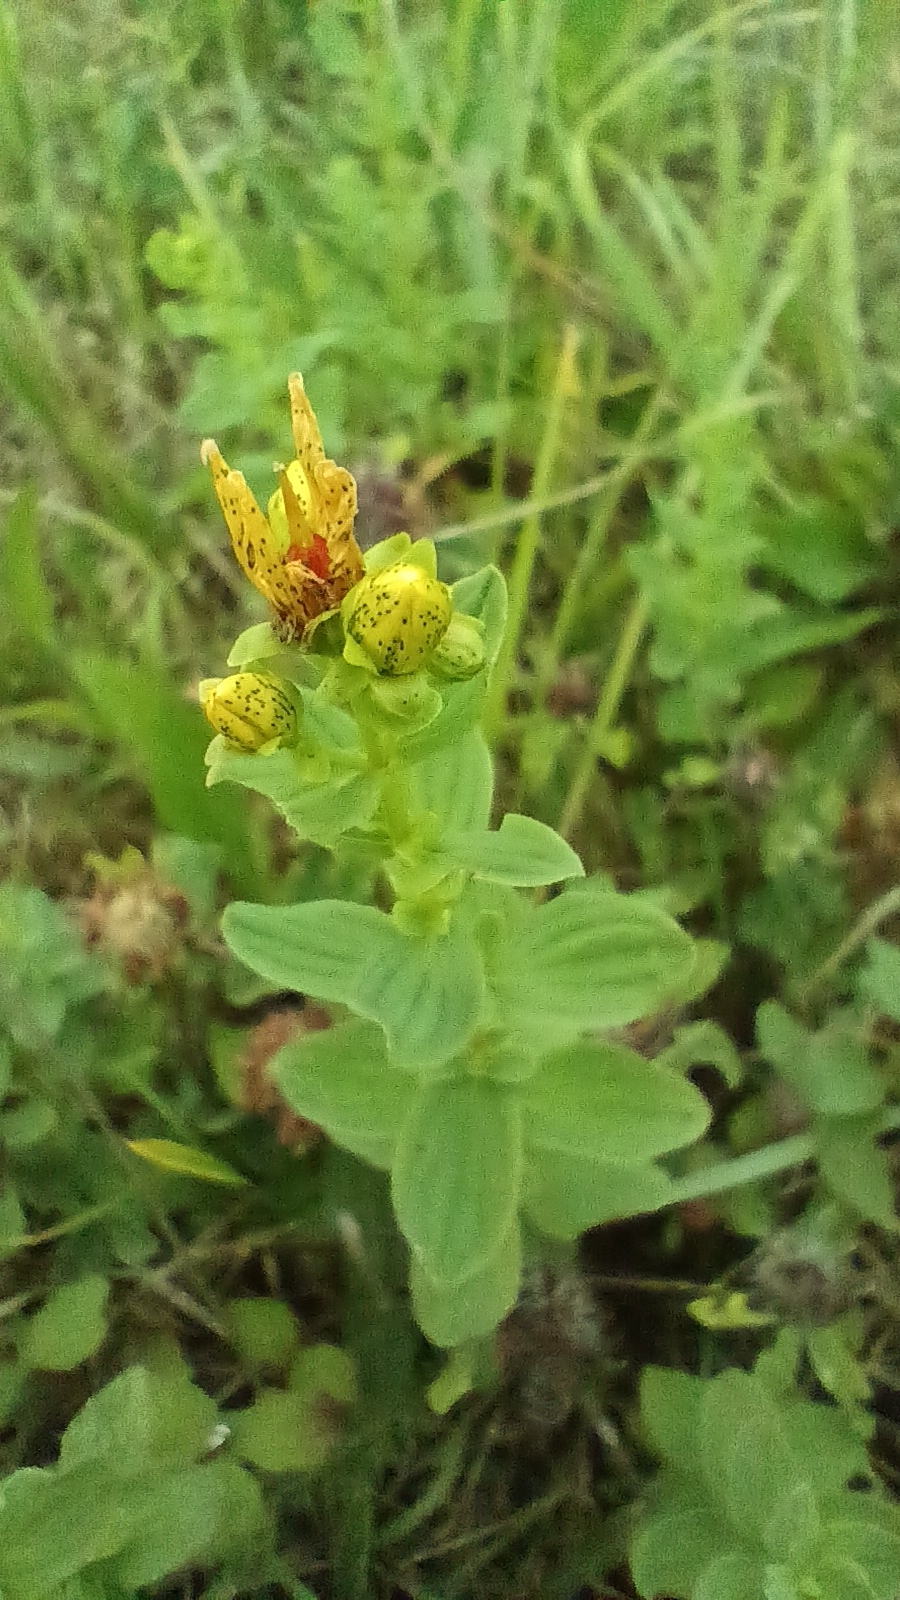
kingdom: Plantae
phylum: Tracheophyta
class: Magnoliopsida
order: Malpighiales
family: Hypericaceae
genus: Hypericum
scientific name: Hypericum maculatum
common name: Imperforate st. john's-wort
